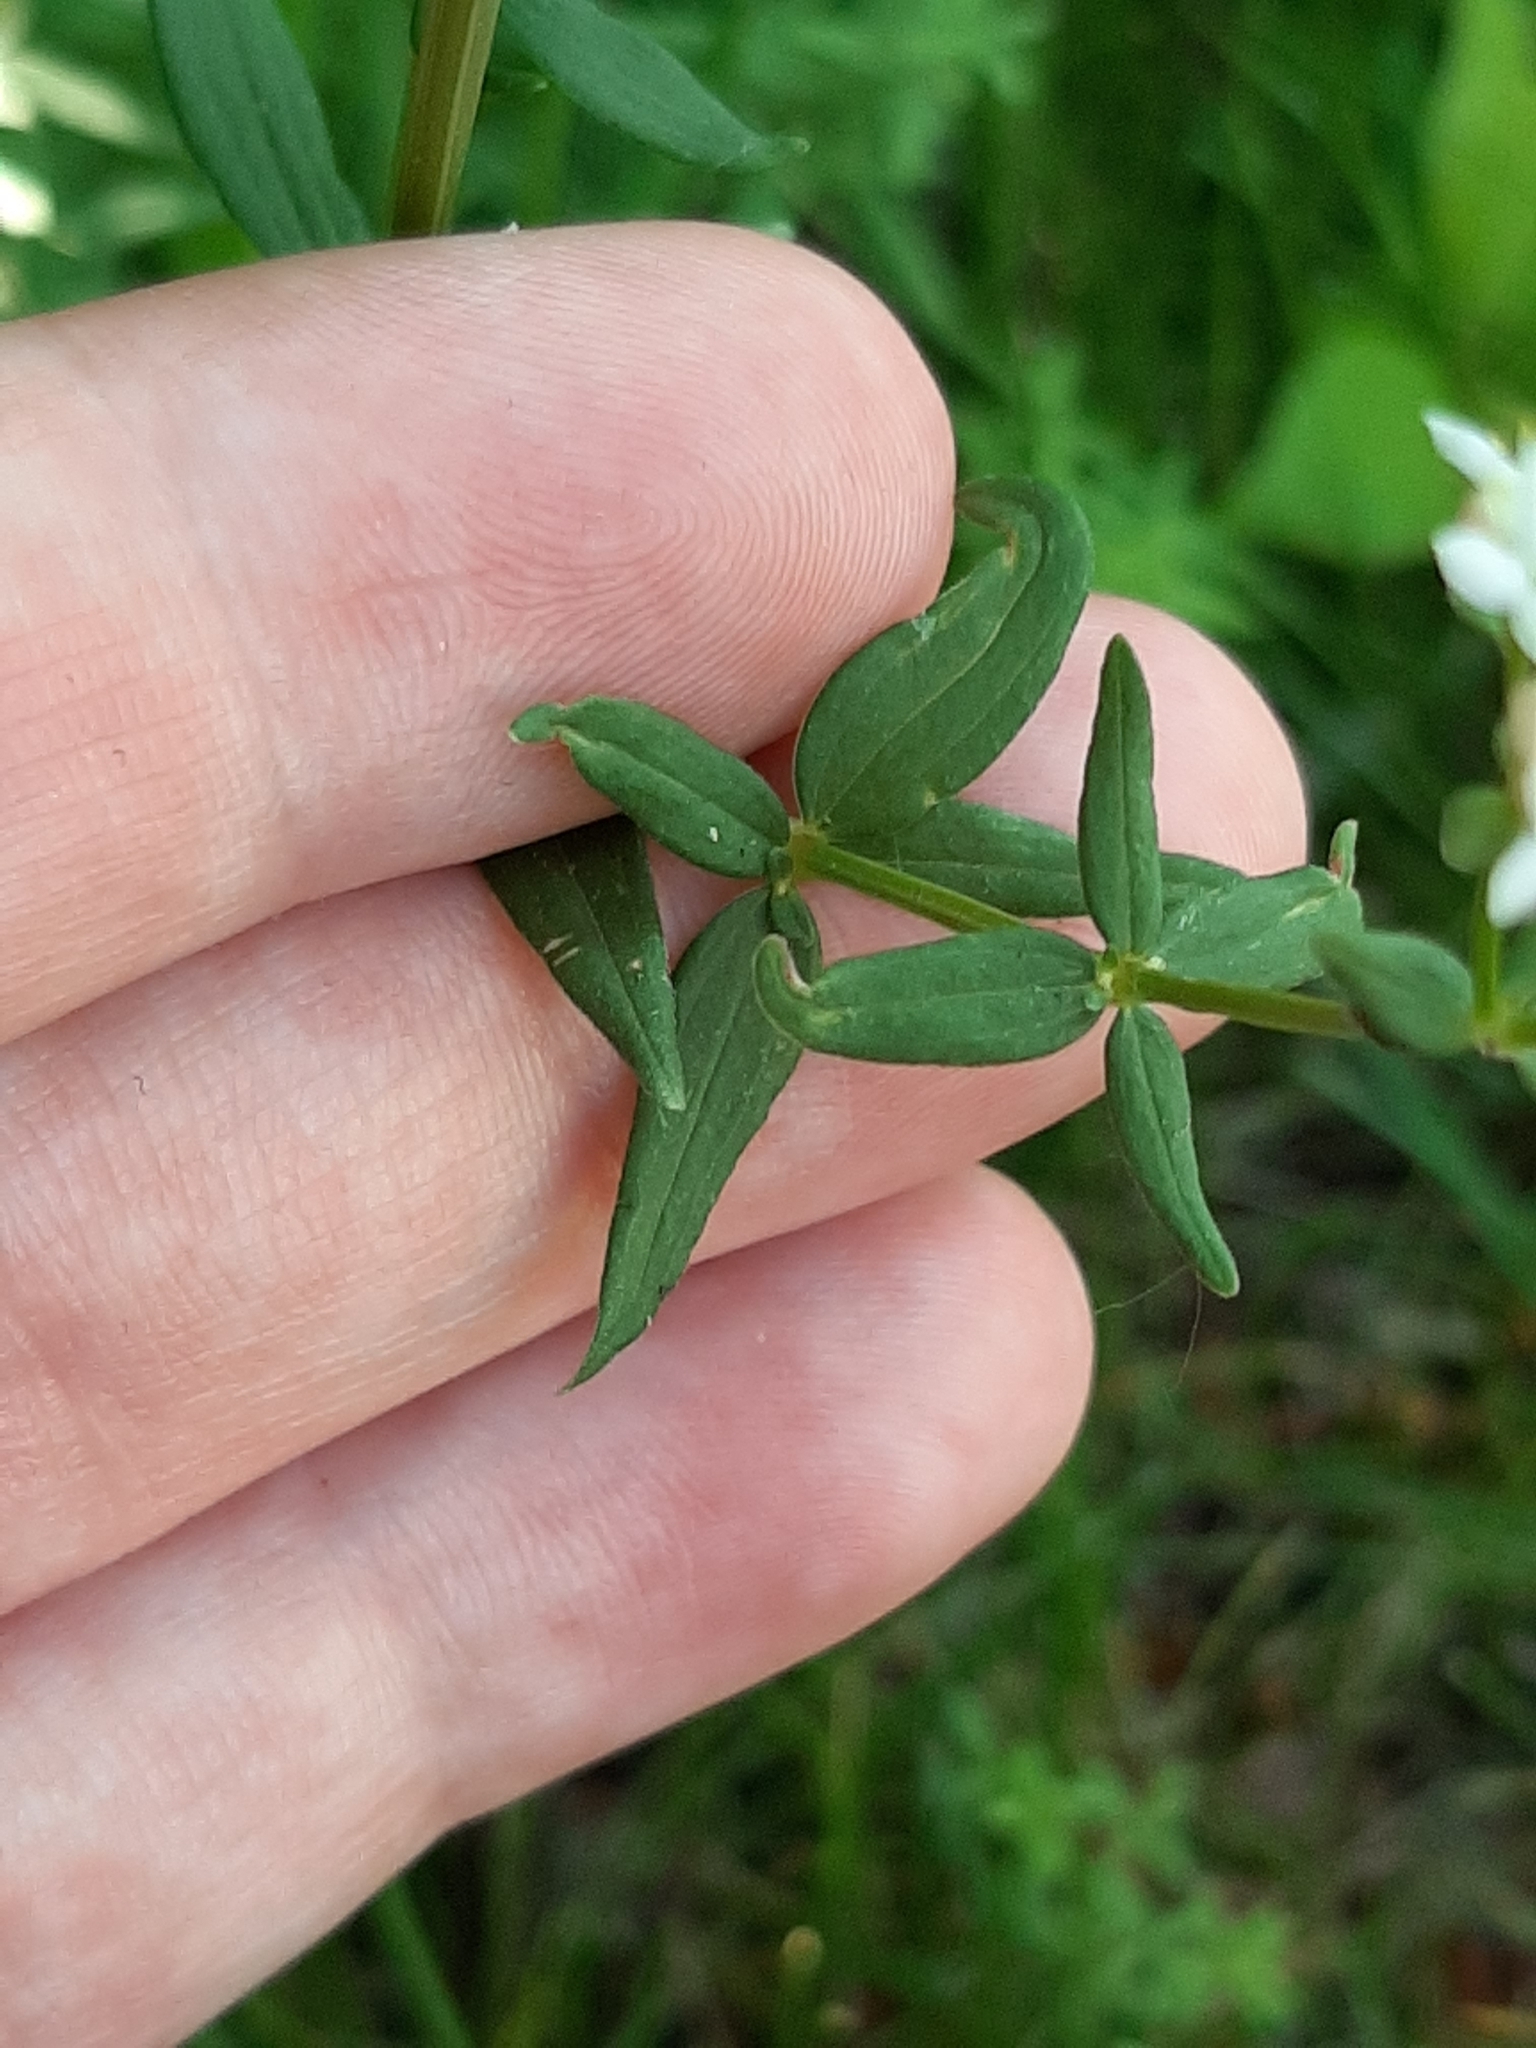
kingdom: Plantae
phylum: Tracheophyta
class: Magnoliopsida
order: Gentianales
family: Rubiaceae
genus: Galium
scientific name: Galium boreale
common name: Northern bedstraw
